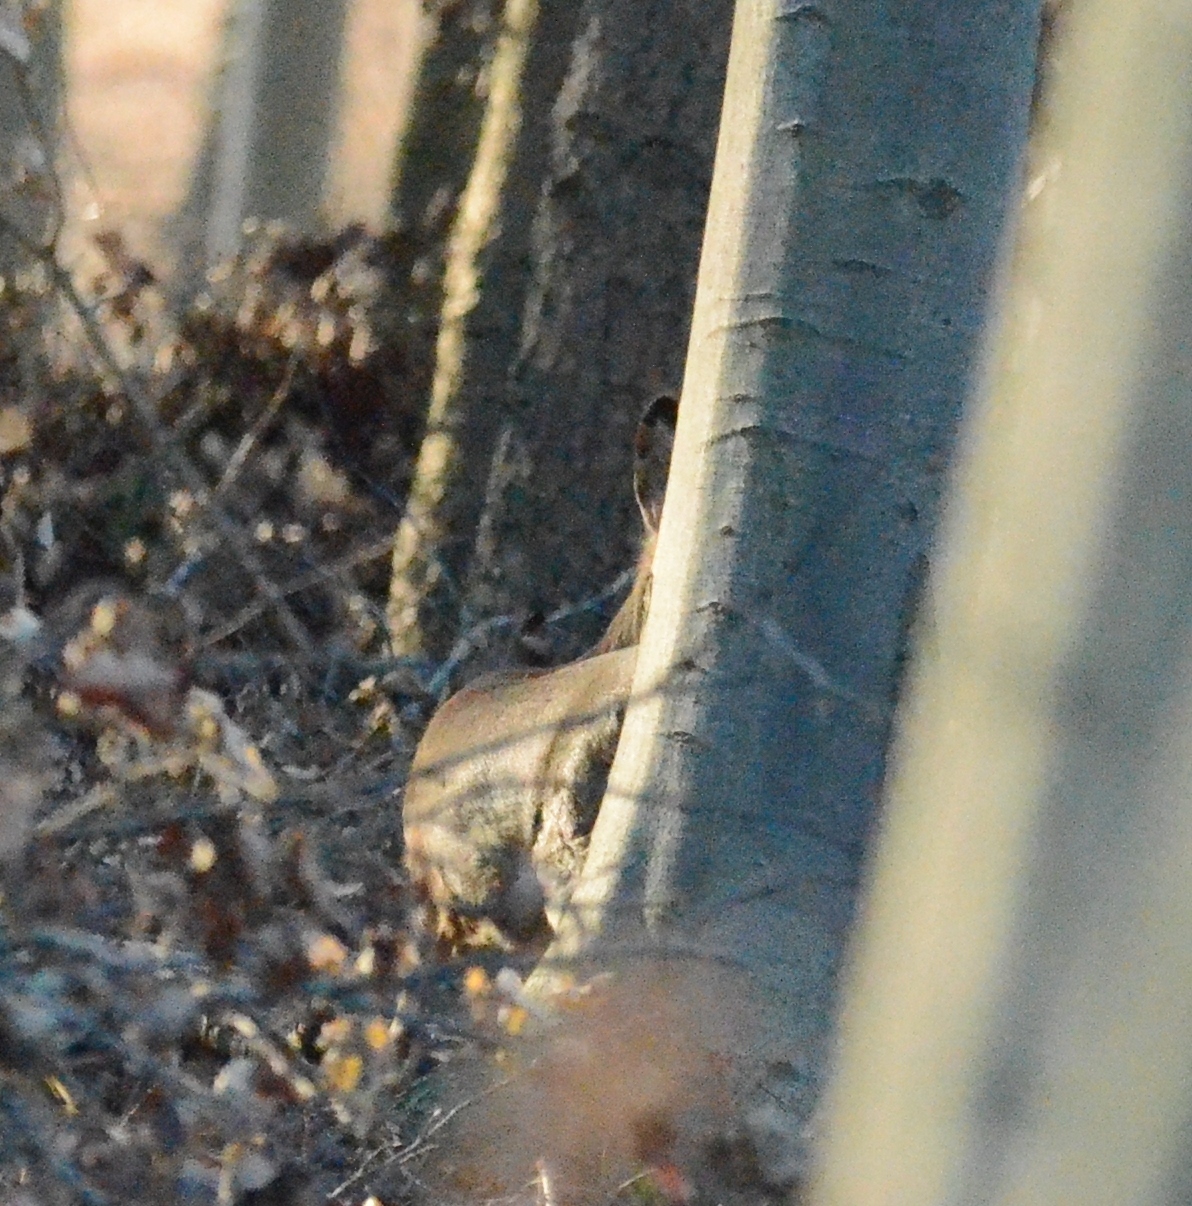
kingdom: Animalia
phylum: Chordata
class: Mammalia
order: Artiodactyla
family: Cervidae
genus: Capreolus
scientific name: Capreolus capreolus
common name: Western roe deer
